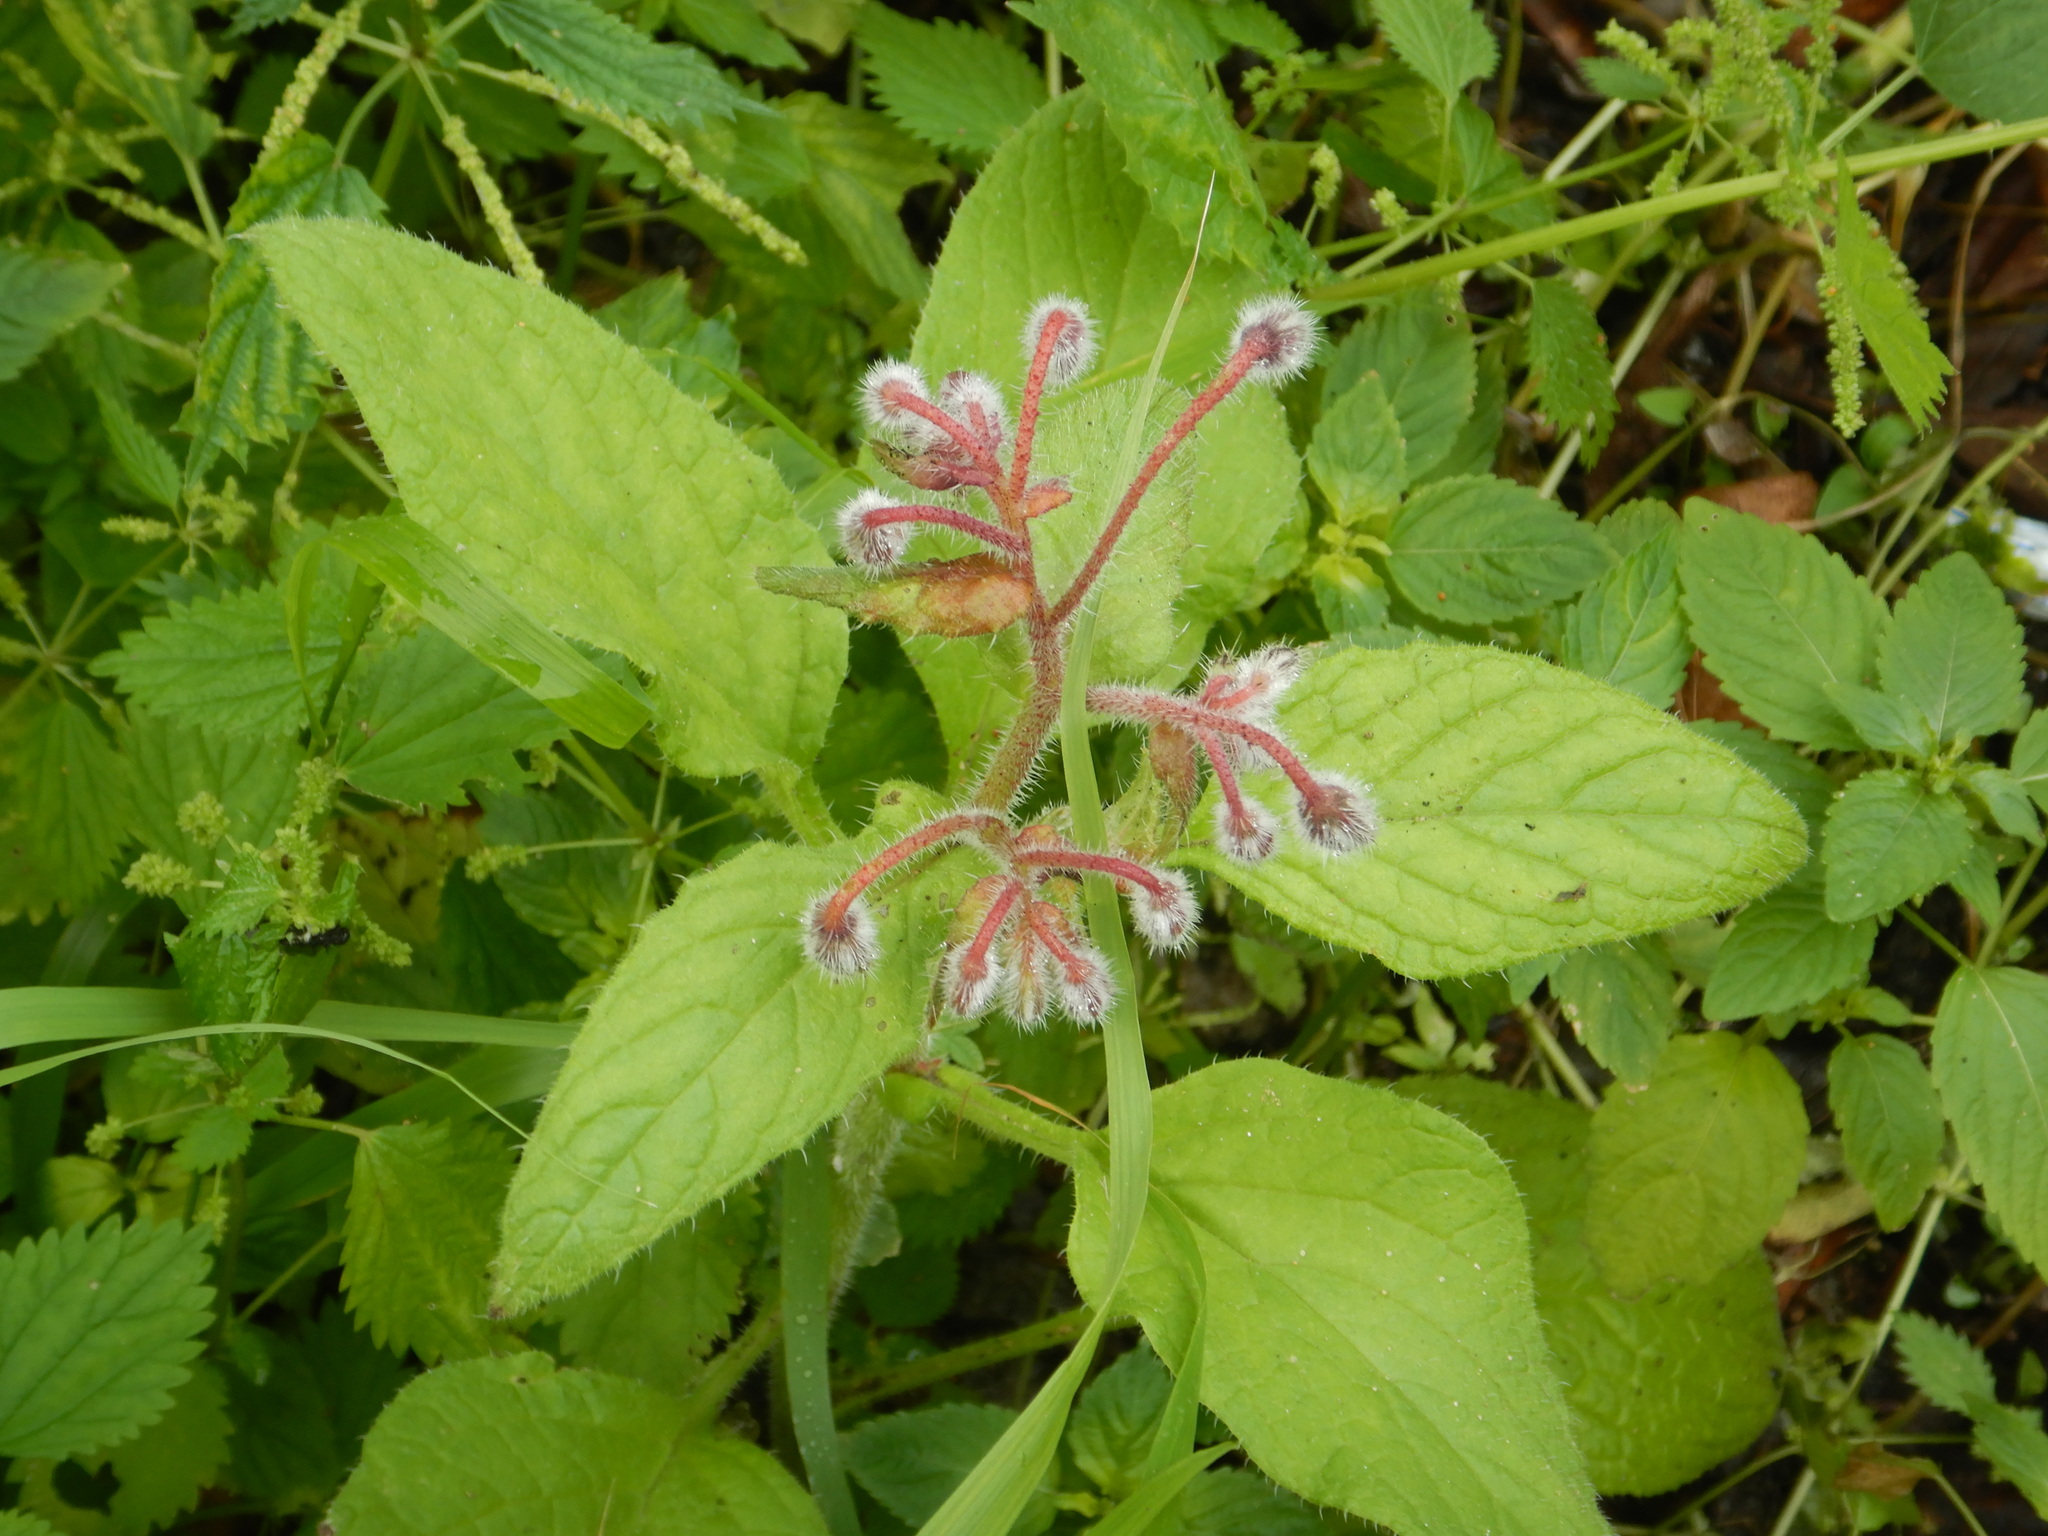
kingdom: Plantae
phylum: Tracheophyta
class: Magnoliopsida
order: Boraginales
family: Boraginaceae
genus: Borago
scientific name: Borago officinalis
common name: Borage
